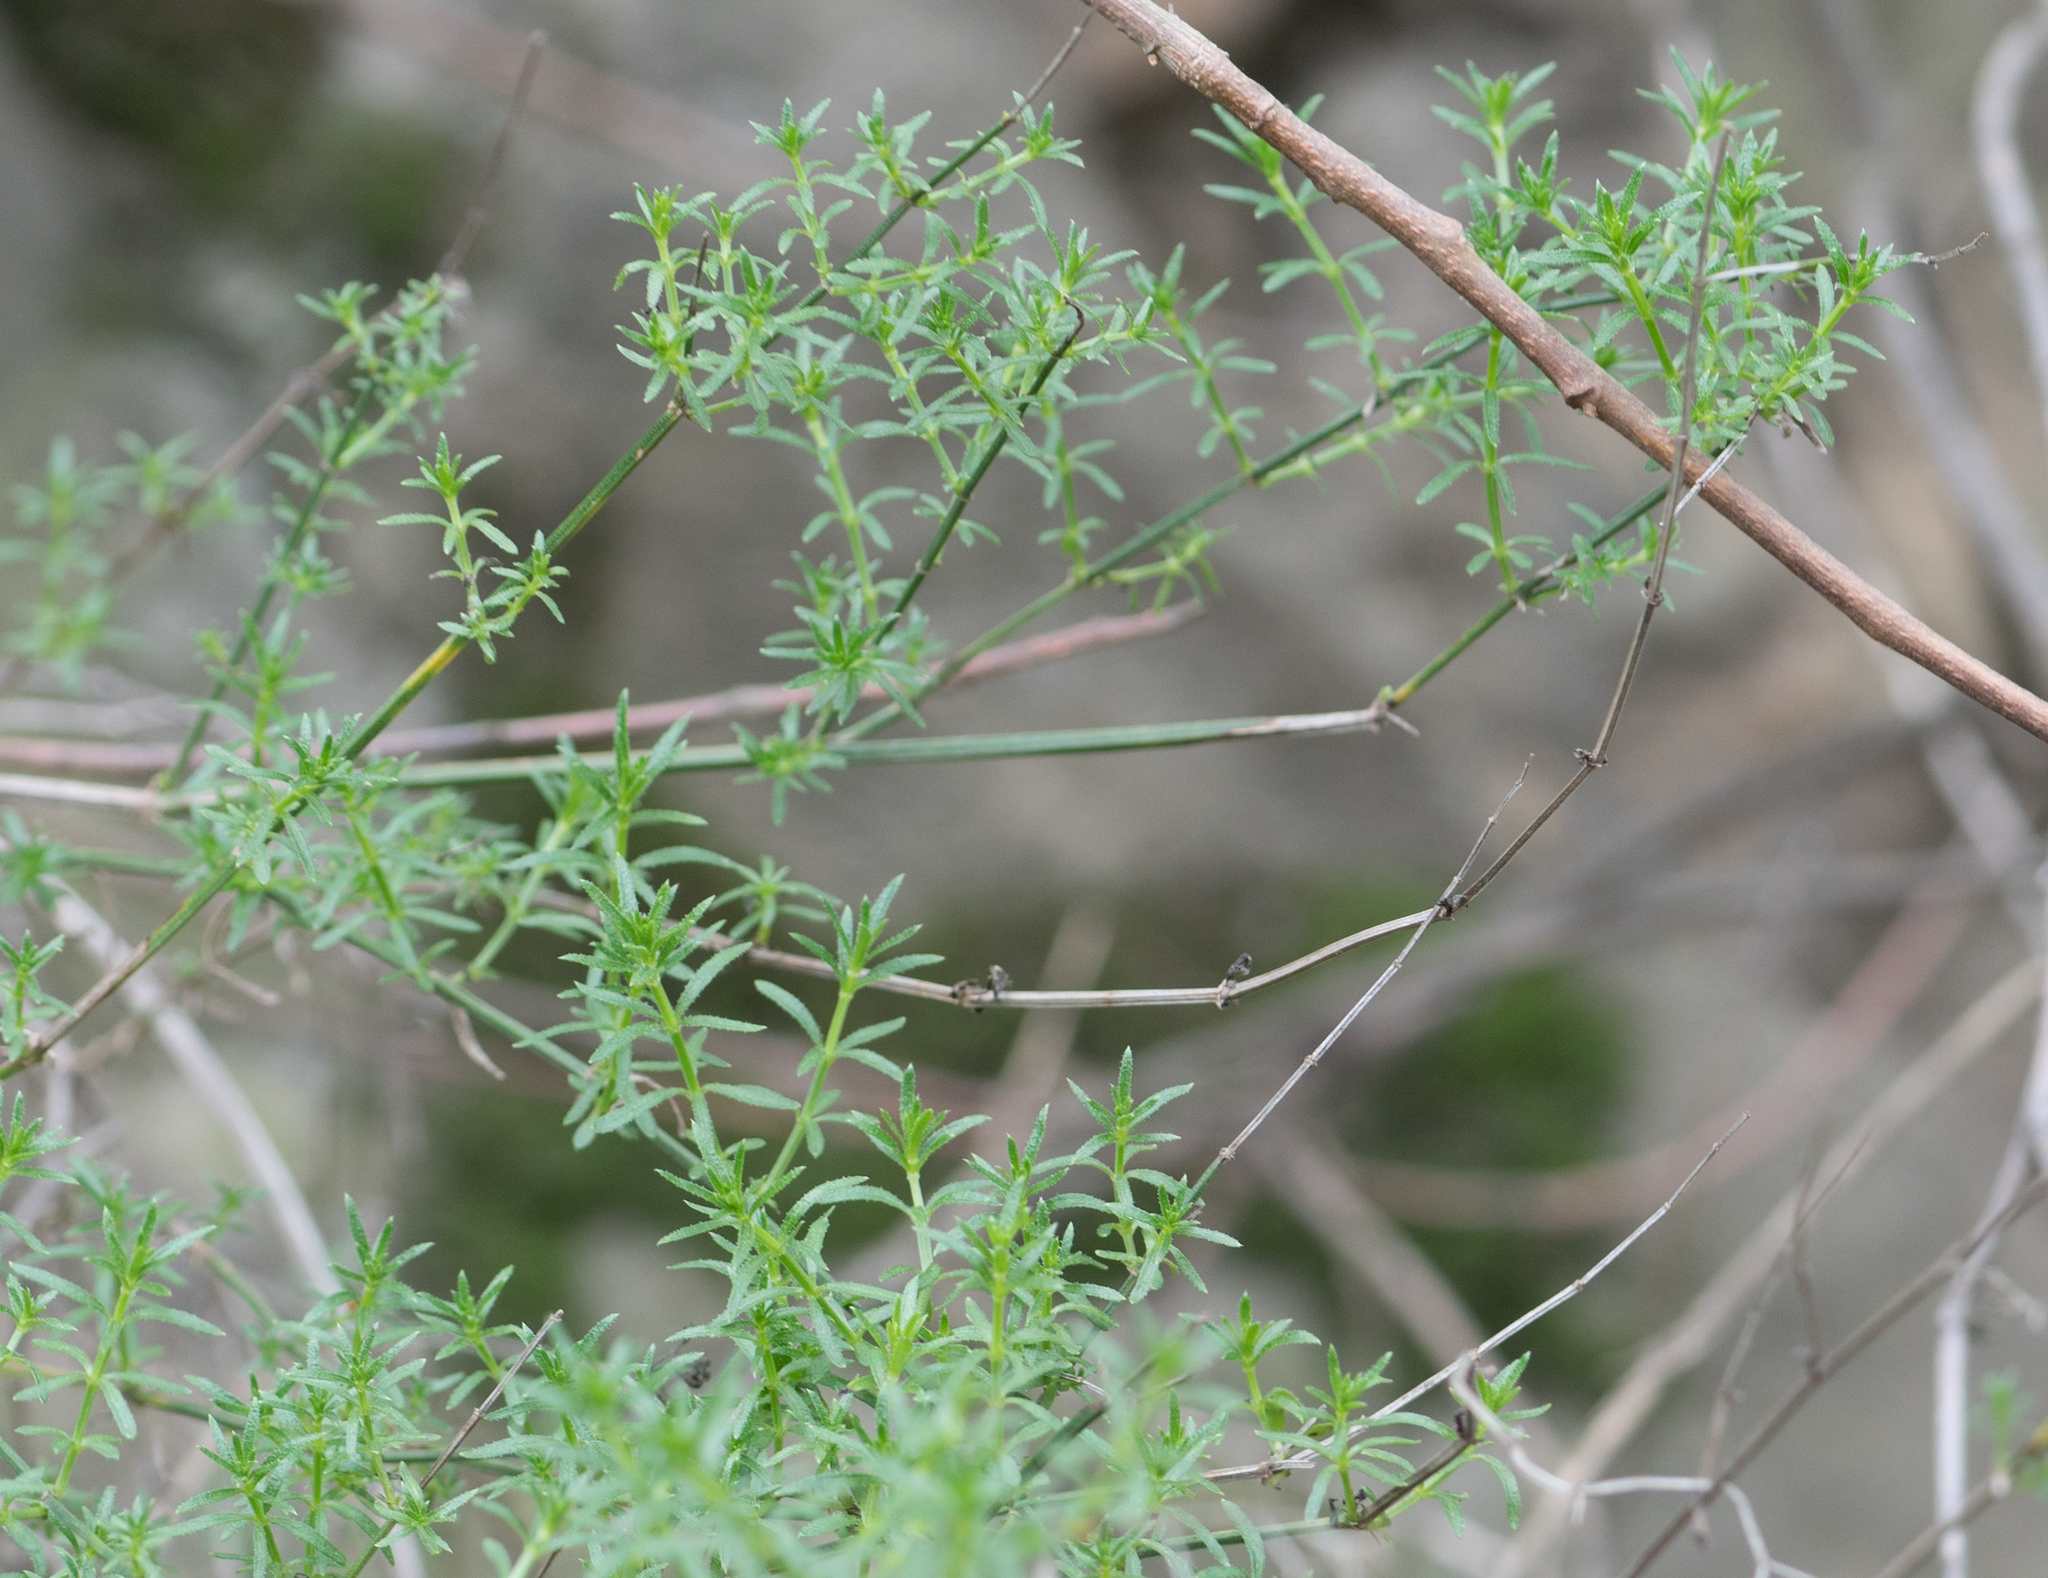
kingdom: Plantae
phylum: Tracheophyta
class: Magnoliopsida
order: Gentianales
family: Rubiaceae
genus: Galium
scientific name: Galium angustifolium
